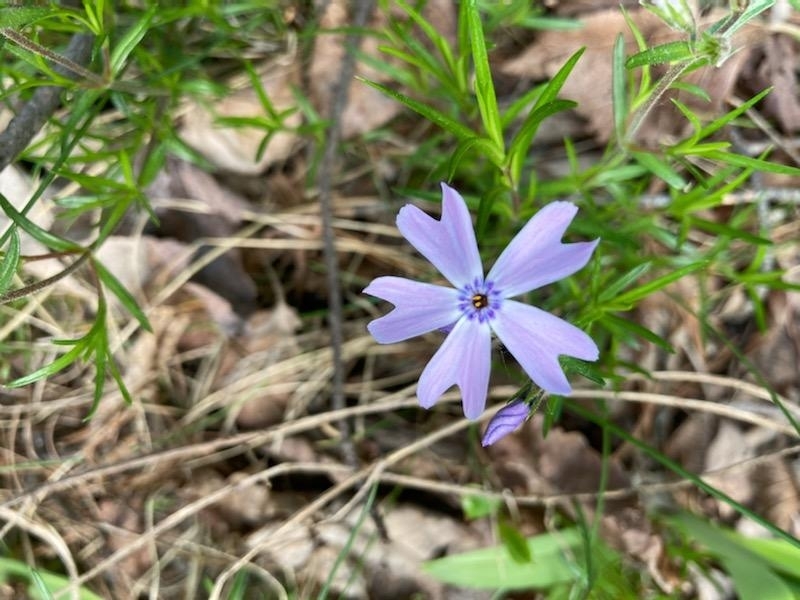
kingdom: Plantae
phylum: Tracheophyta
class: Magnoliopsida
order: Ericales
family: Polemoniaceae
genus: Phlox
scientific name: Phlox subulata
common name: Moss phlox
